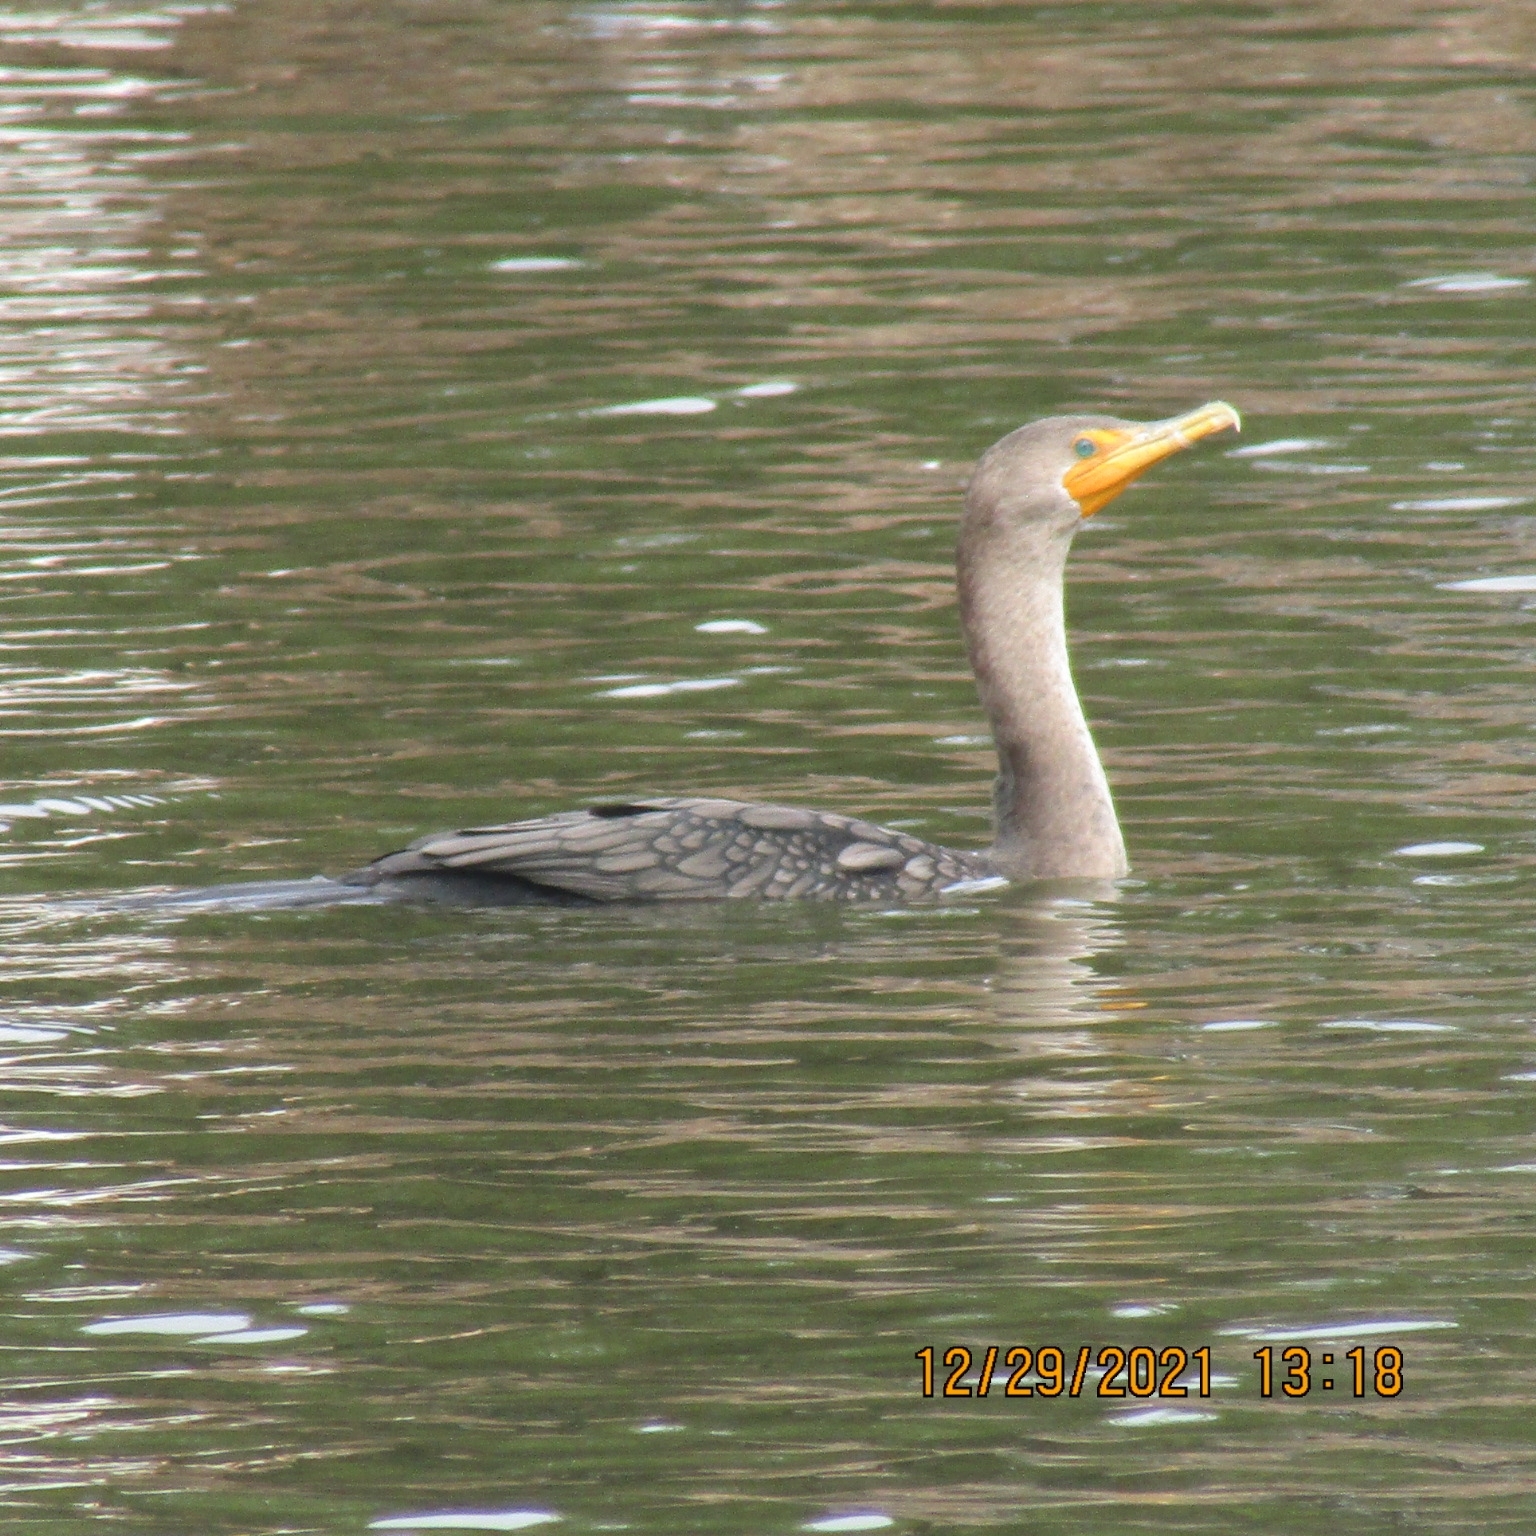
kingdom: Animalia
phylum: Chordata
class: Aves
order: Suliformes
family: Phalacrocoracidae
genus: Phalacrocorax
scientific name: Phalacrocorax auritus
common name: Double-crested cormorant
